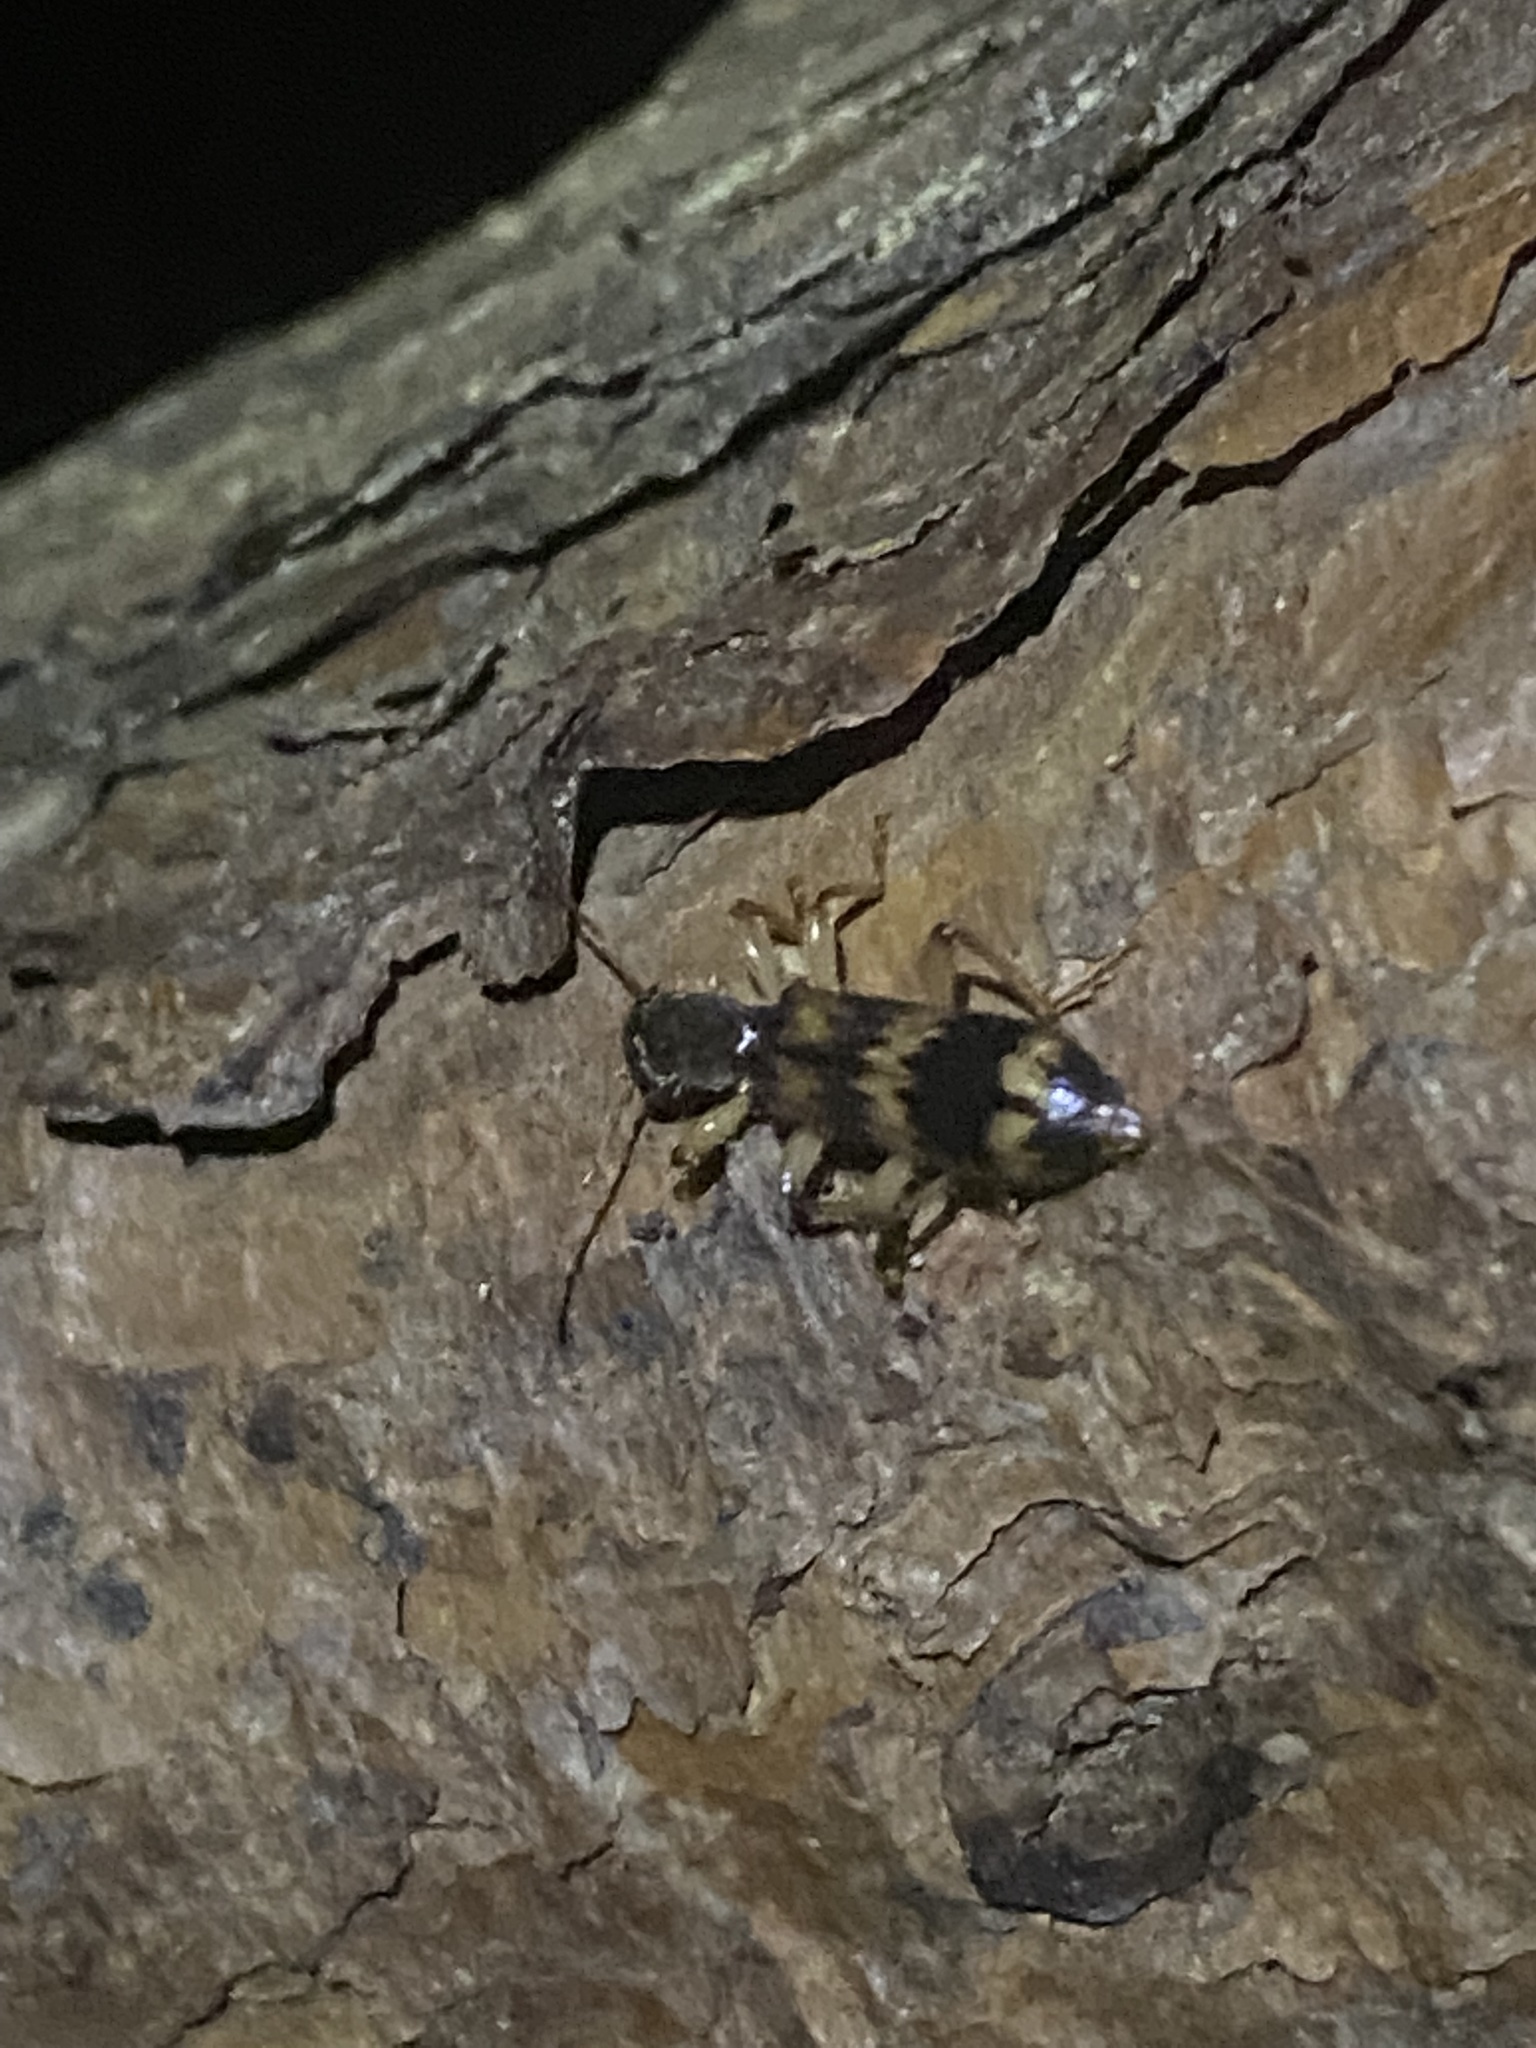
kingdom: Animalia
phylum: Arthropoda
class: Insecta
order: Coleoptera
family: Cleridae
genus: Cymatodera
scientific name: Cymatodera undulata
